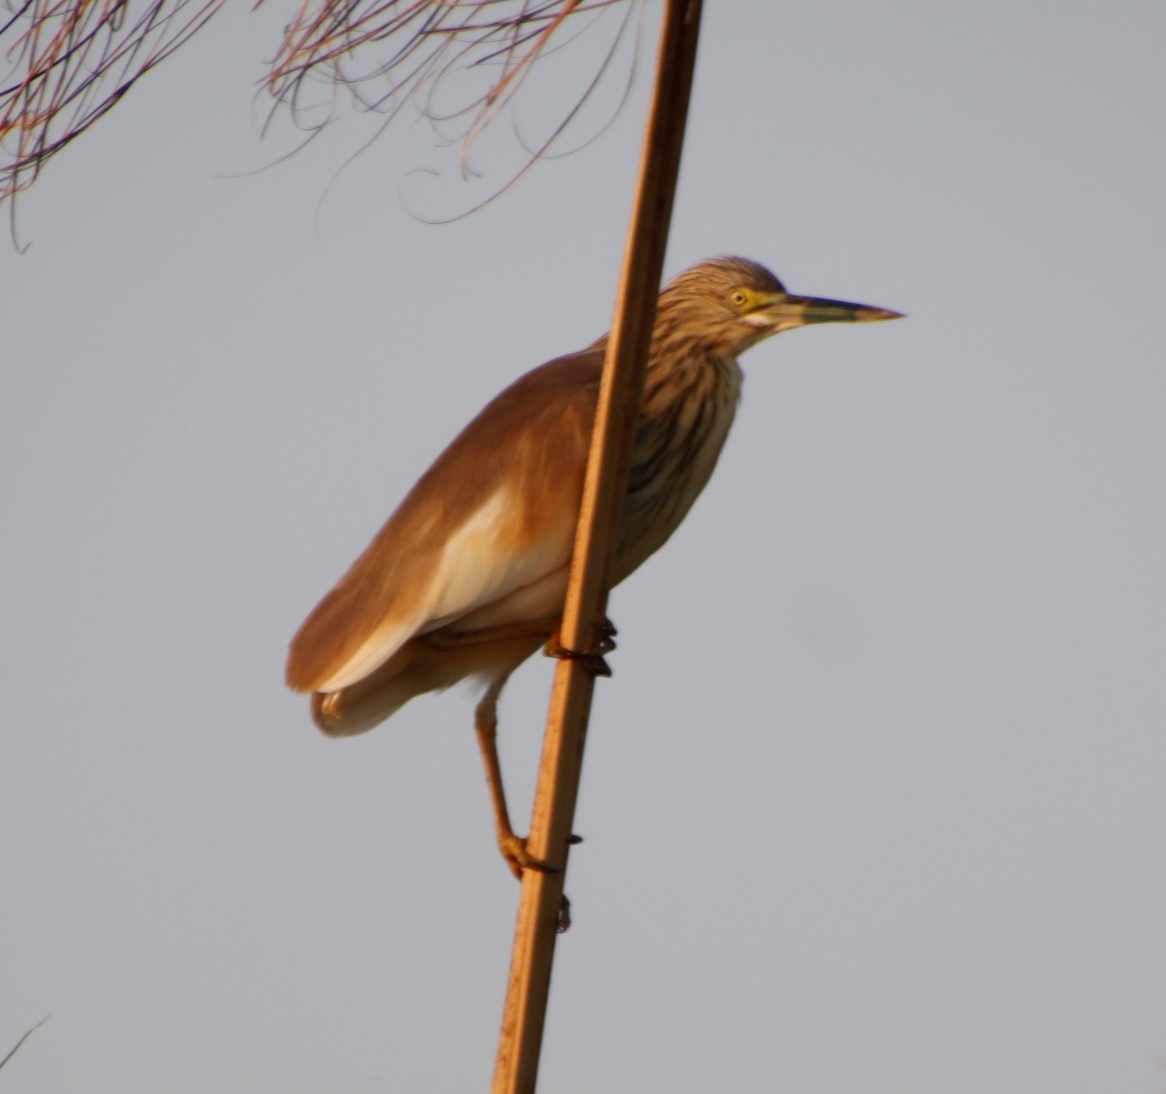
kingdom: Animalia
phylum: Chordata
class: Aves
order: Pelecaniformes
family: Ardeidae
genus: Ardeola
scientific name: Ardeola ralloides
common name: Squacco heron
